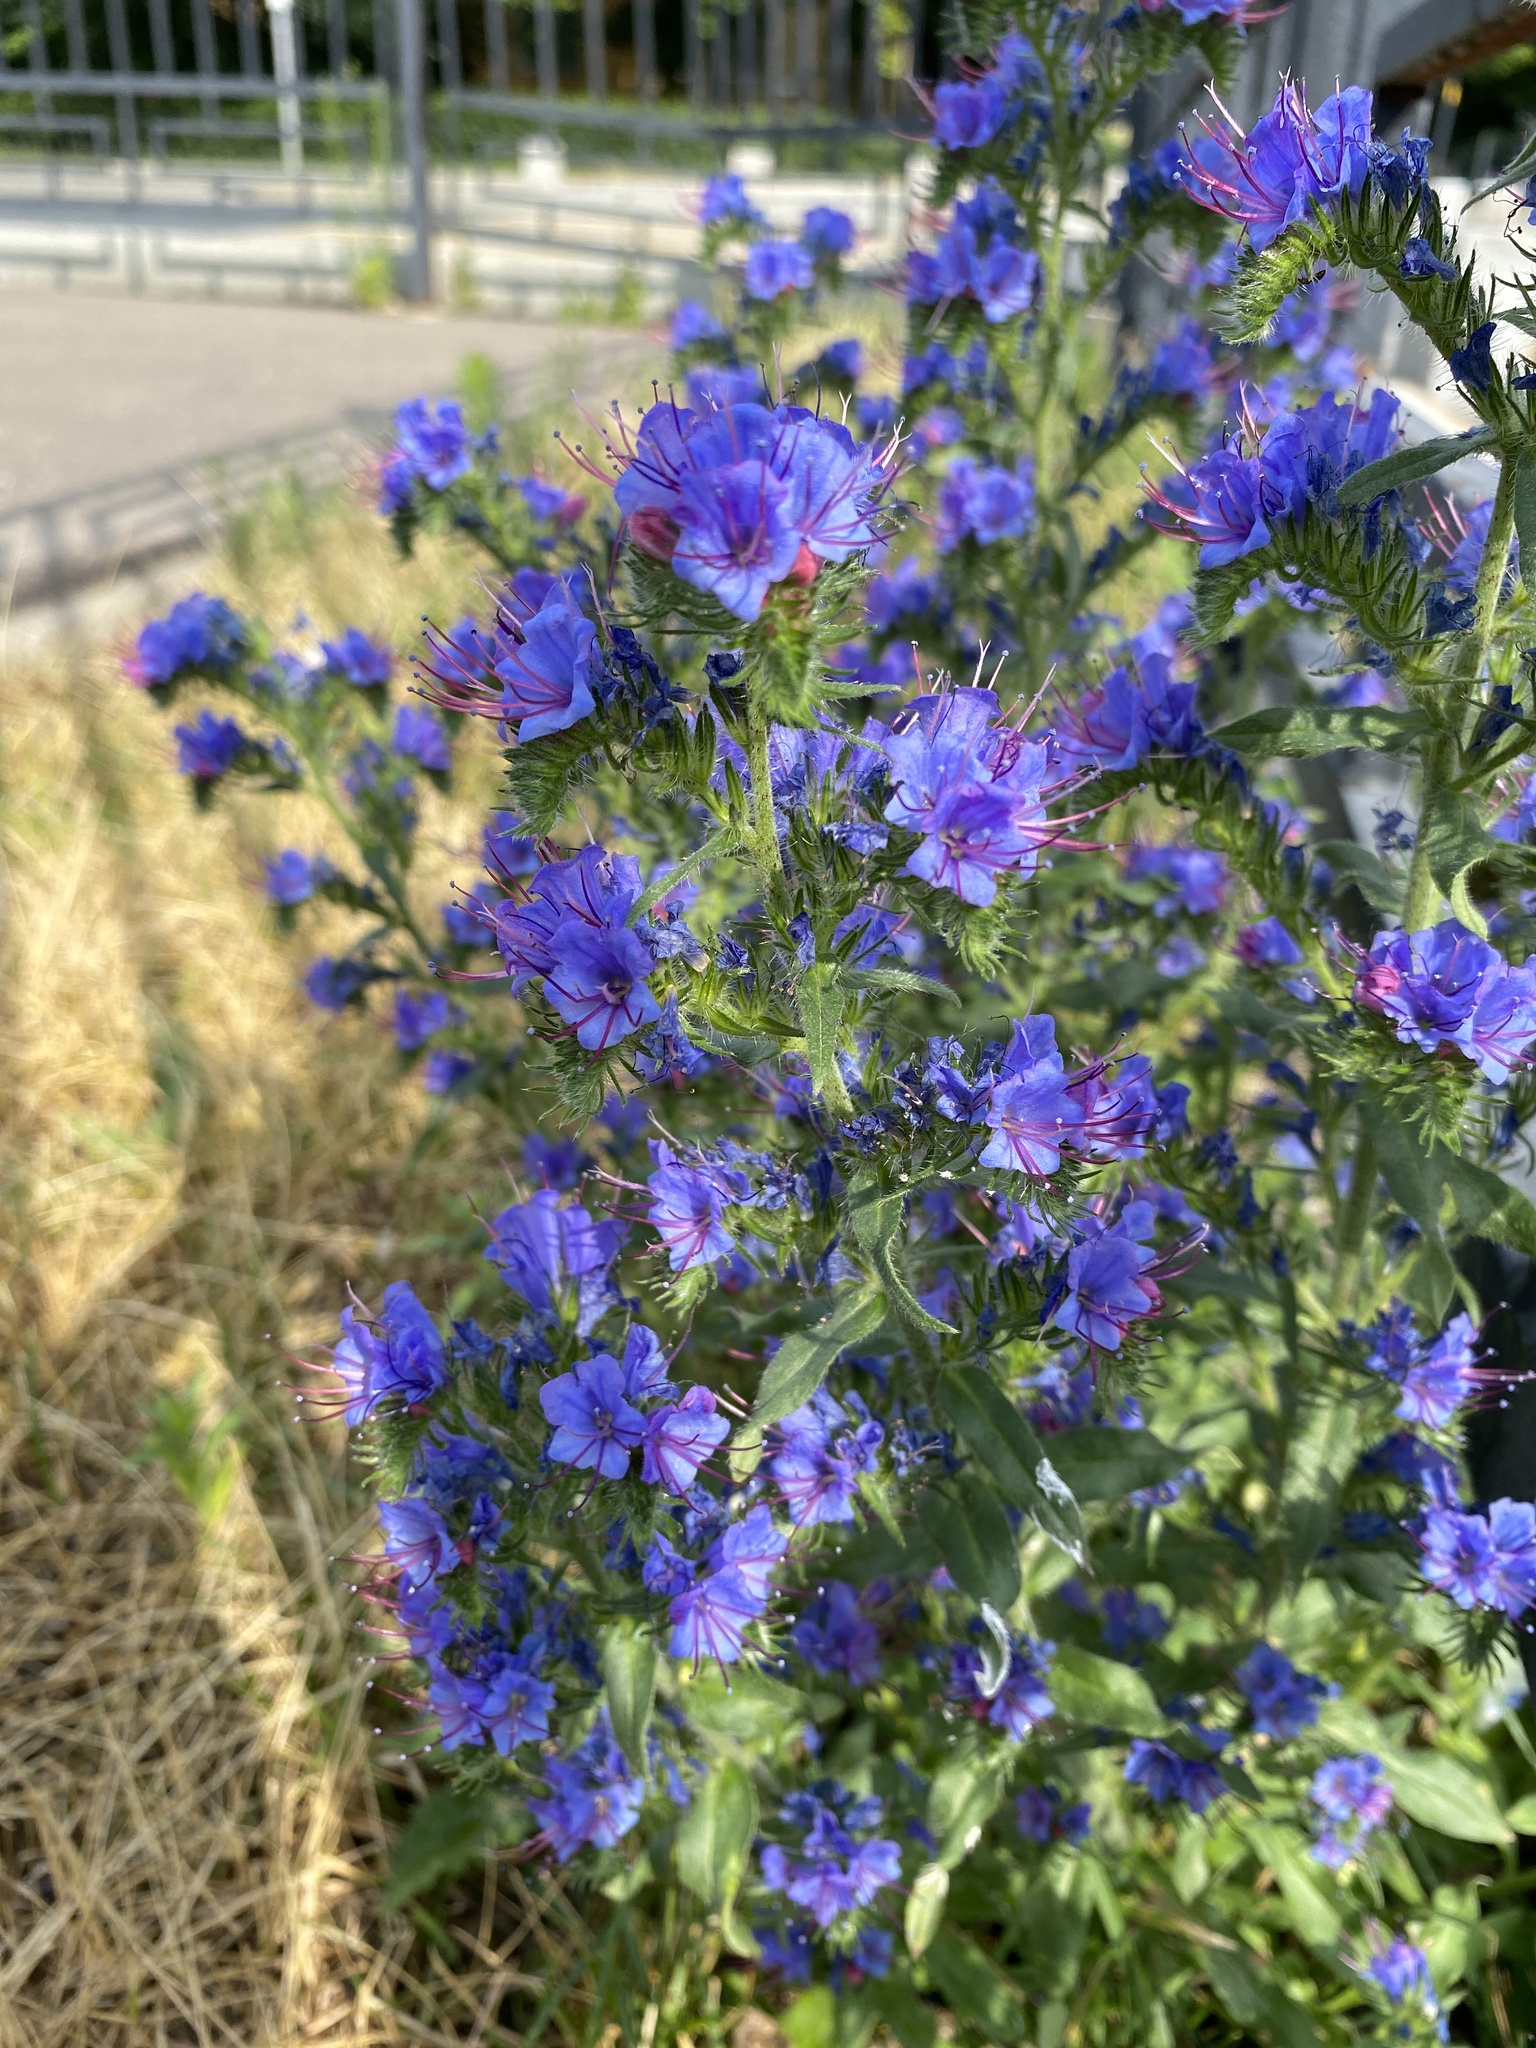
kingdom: Plantae
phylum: Tracheophyta
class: Magnoliopsida
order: Boraginales
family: Boraginaceae
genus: Echium
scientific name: Echium vulgare
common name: Common viper's bugloss
